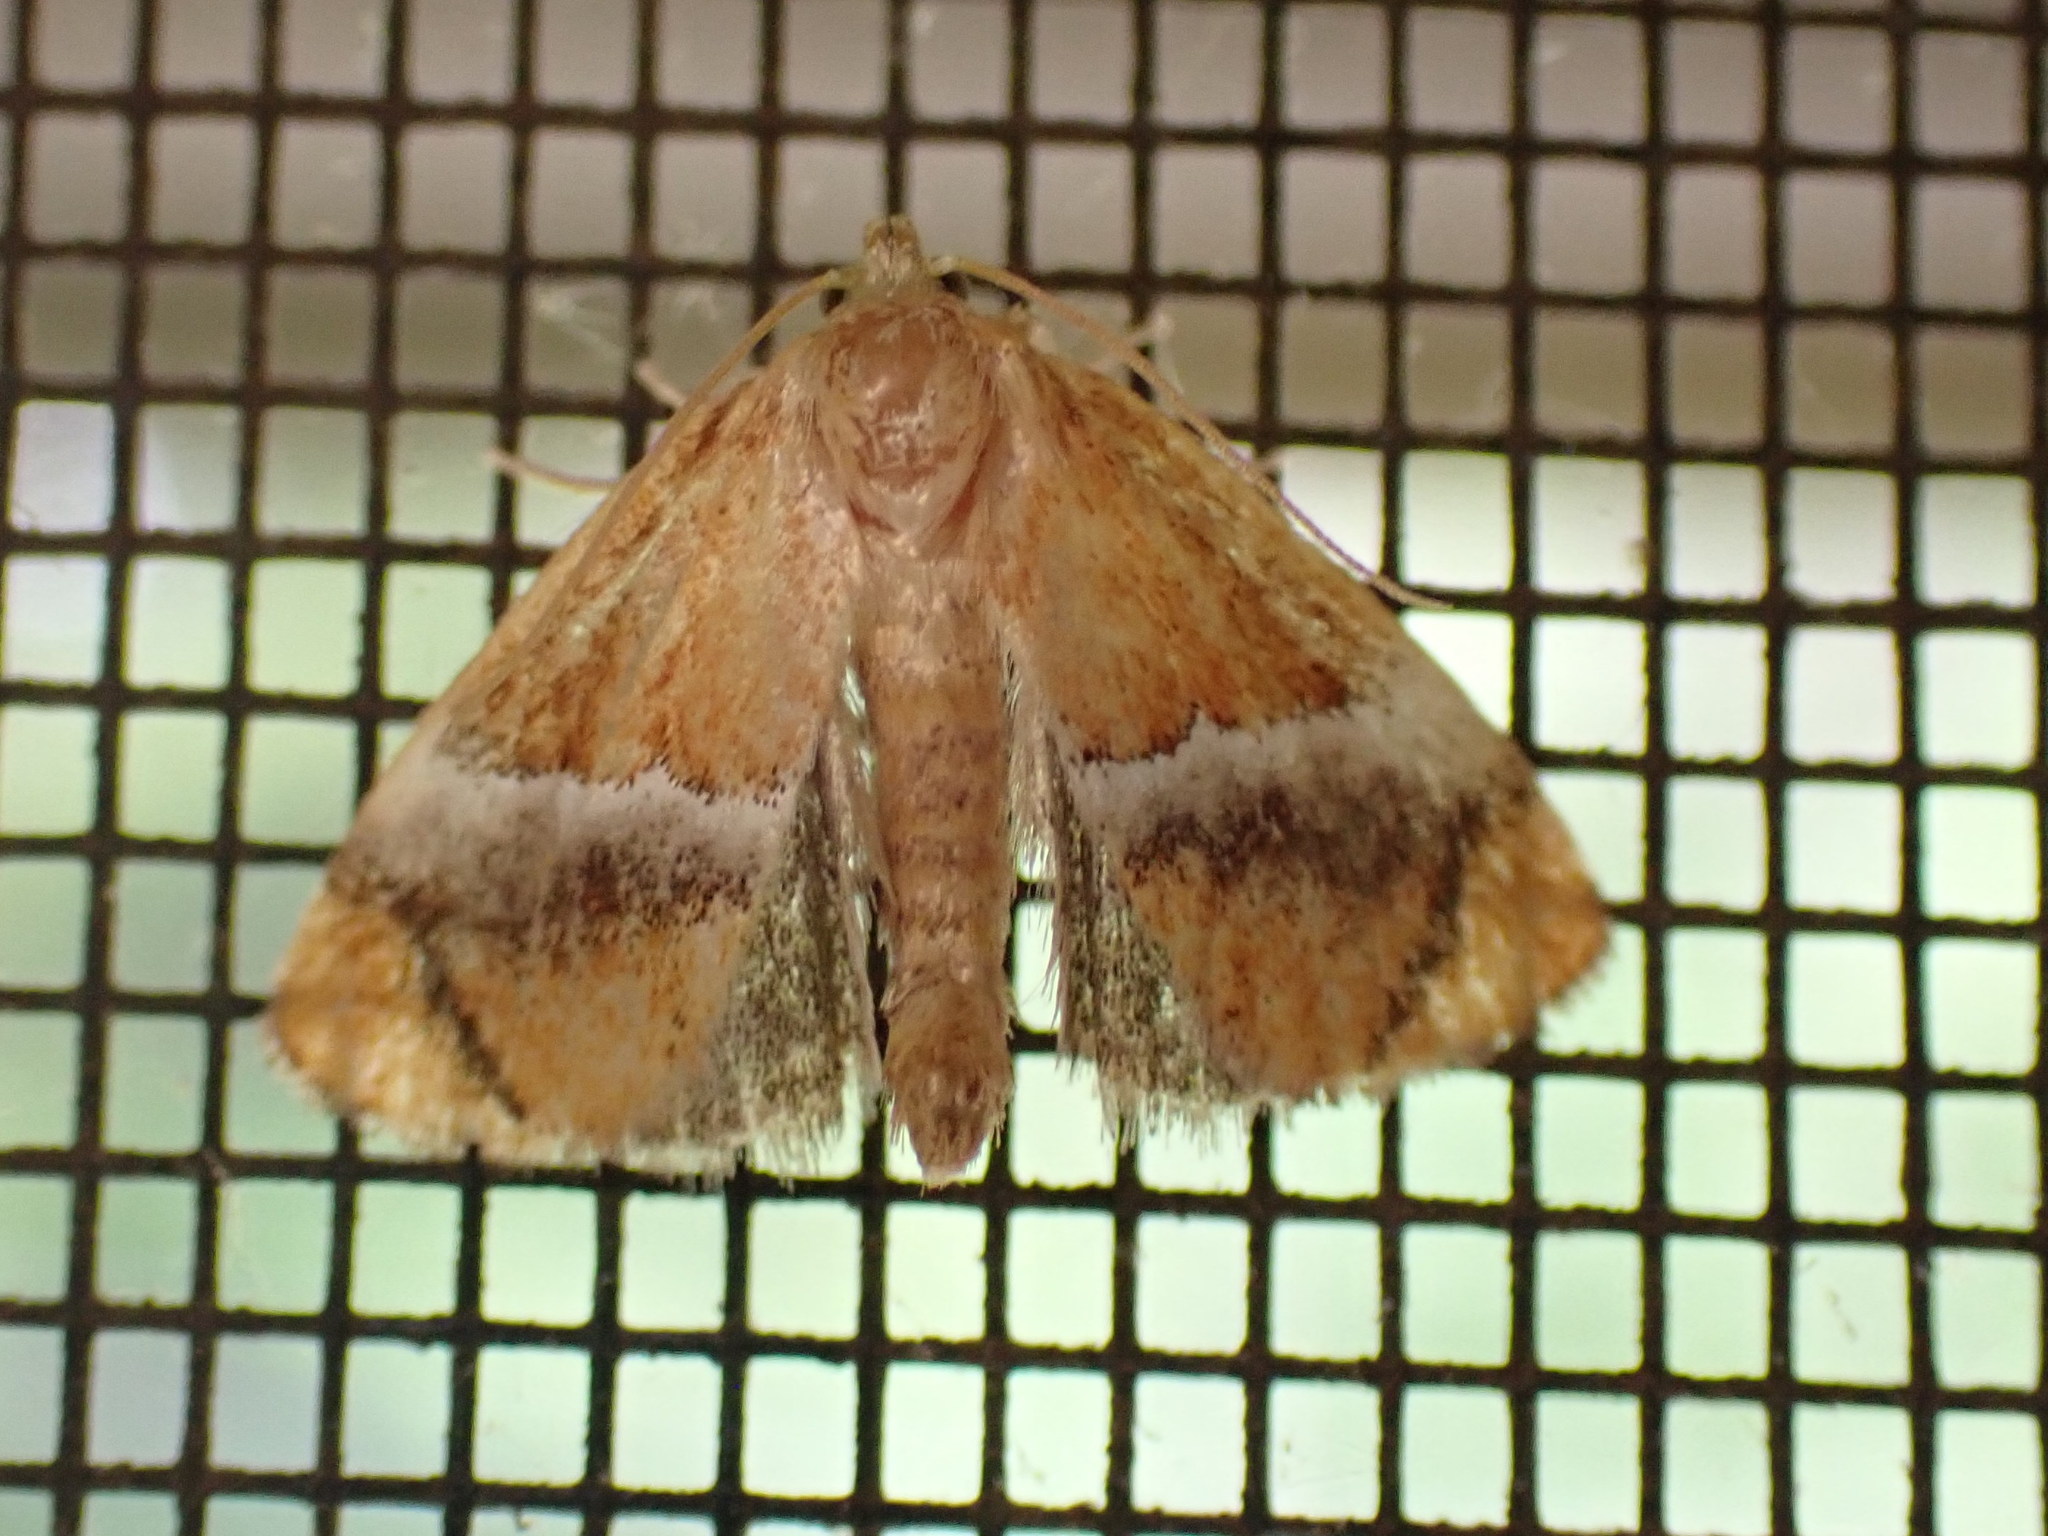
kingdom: Animalia
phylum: Arthropoda
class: Insecta
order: Lepidoptera
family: Limacodidae
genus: Lithacodes
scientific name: Lithacodes fasciola
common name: Yellow-shouldered slug moth
